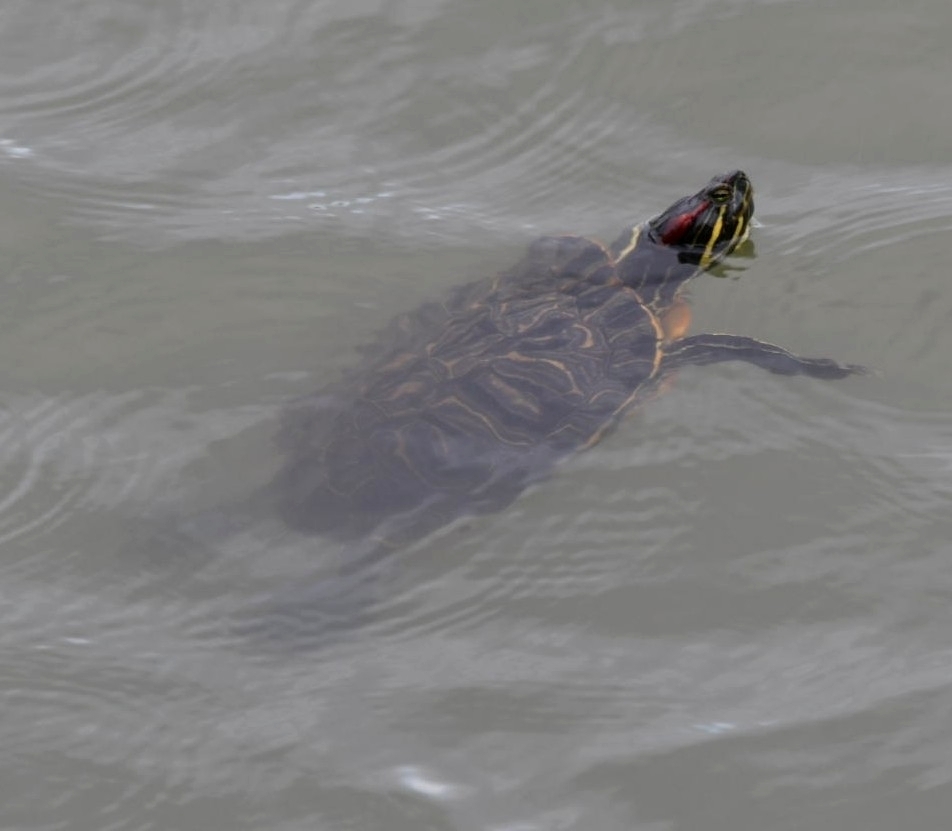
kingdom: Animalia
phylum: Chordata
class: Testudines
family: Emydidae
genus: Trachemys
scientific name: Trachemys scripta
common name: Slider
